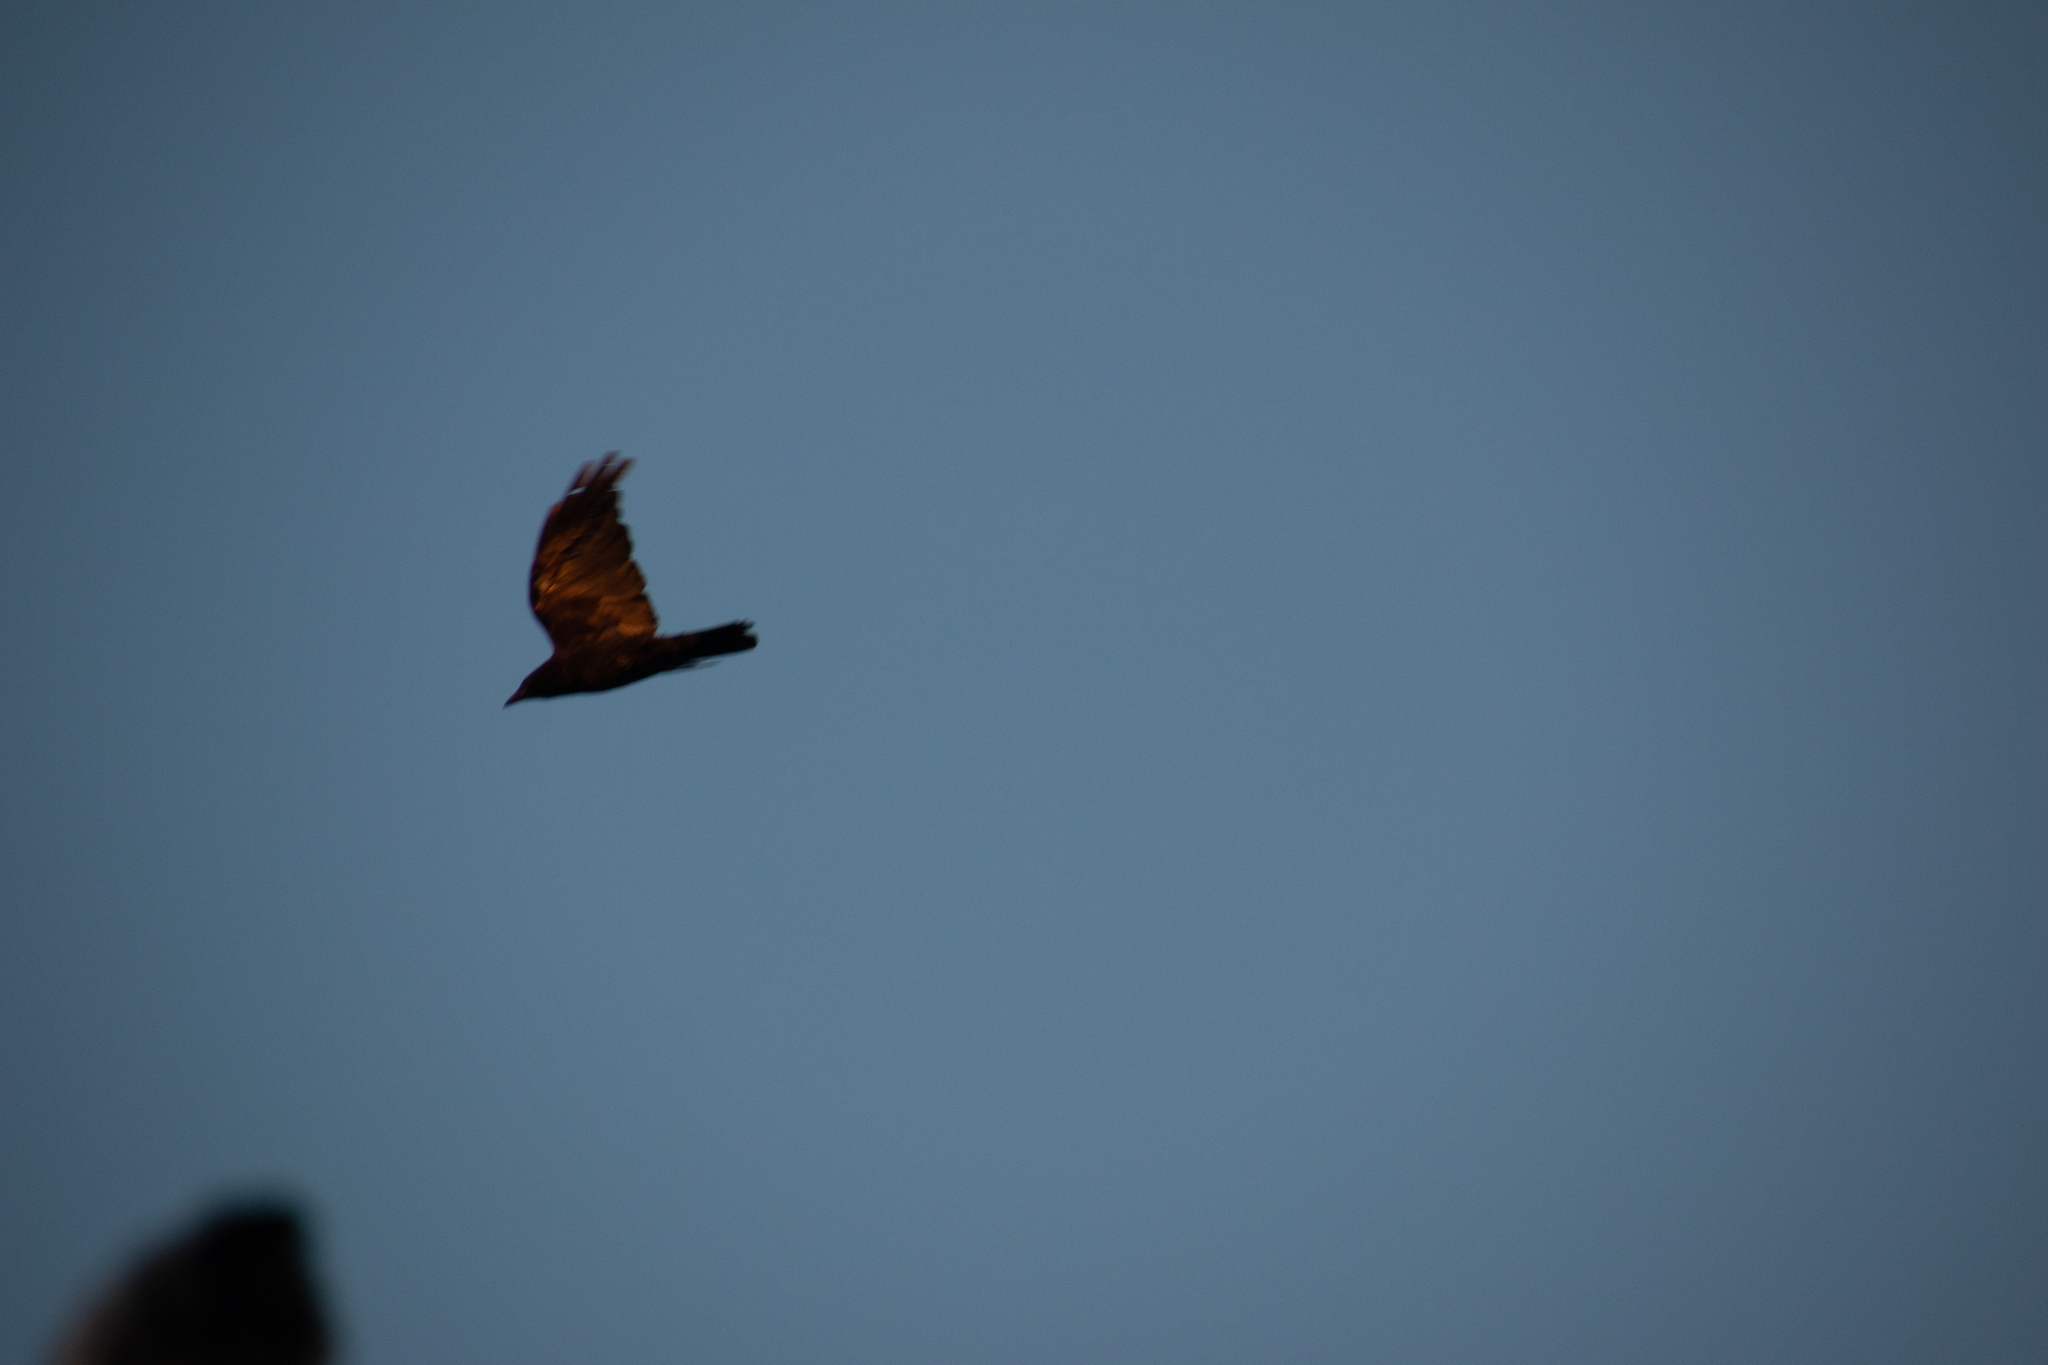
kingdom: Animalia
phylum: Chordata
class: Aves
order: Passeriformes
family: Corvidae
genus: Corvus
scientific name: Corvus brachyrhynchos
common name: American crow
